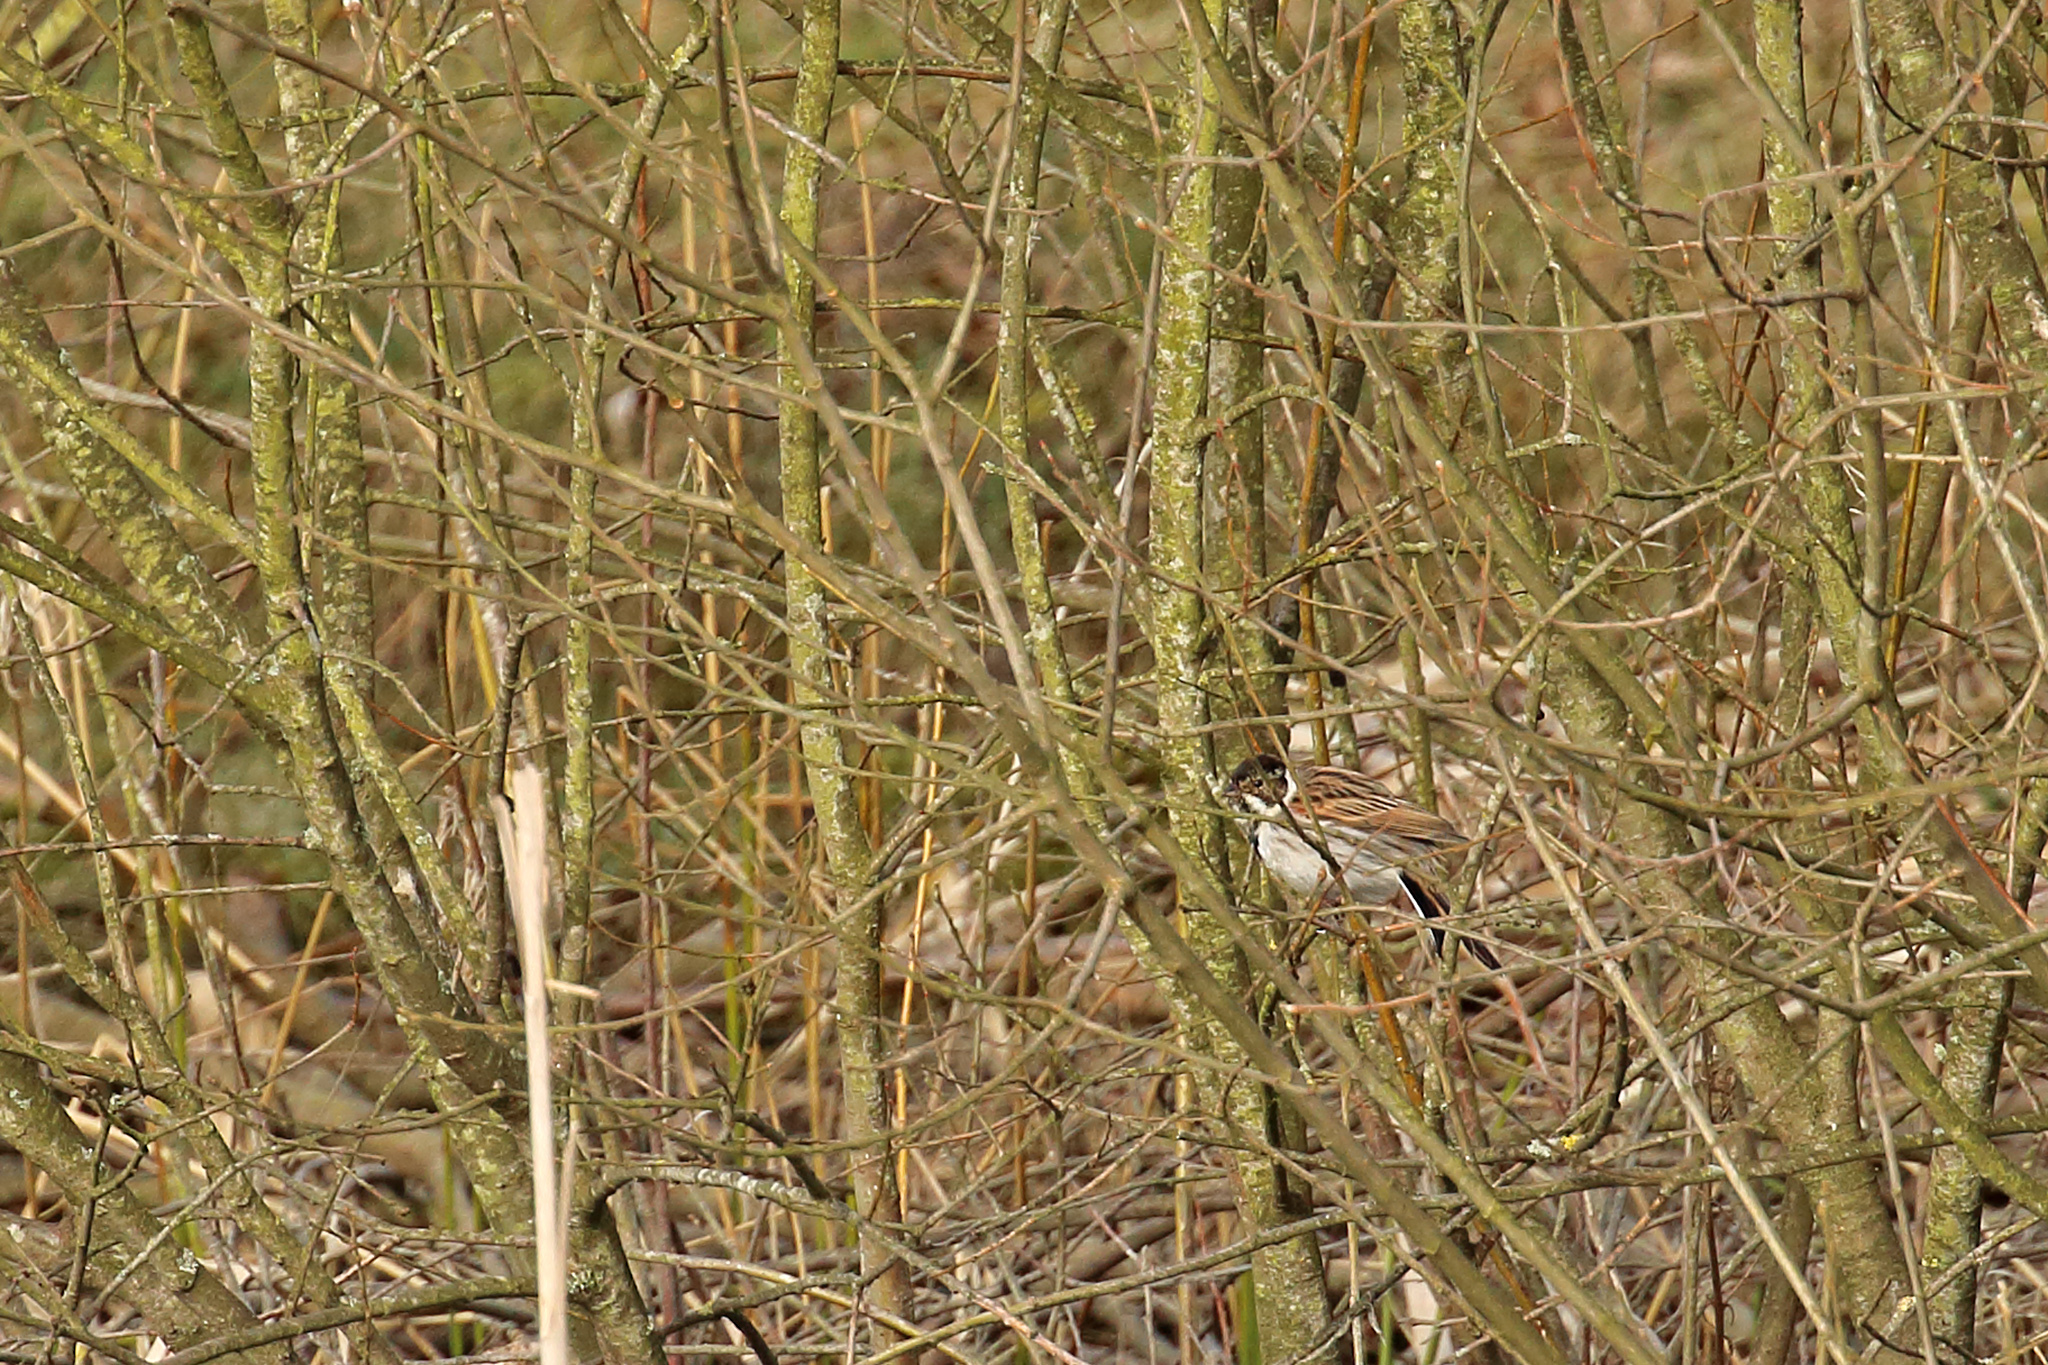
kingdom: Animalia
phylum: Chordata
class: Aves
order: Passeriformes
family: Emberizidae
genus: Emberiza
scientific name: Emberiza schoeniclus
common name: Reed bunting
